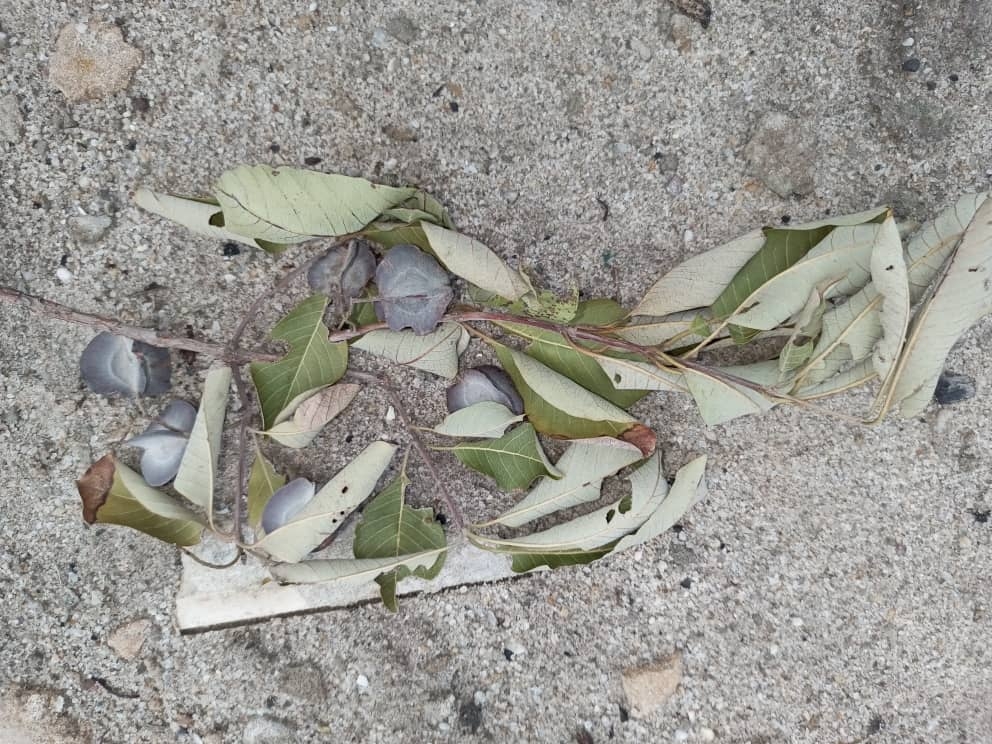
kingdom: Plantae
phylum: Tracheophyta
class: Magnoliopsida
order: Myrtales
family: Combretaceae
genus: Combretum
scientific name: Combretum collinum
